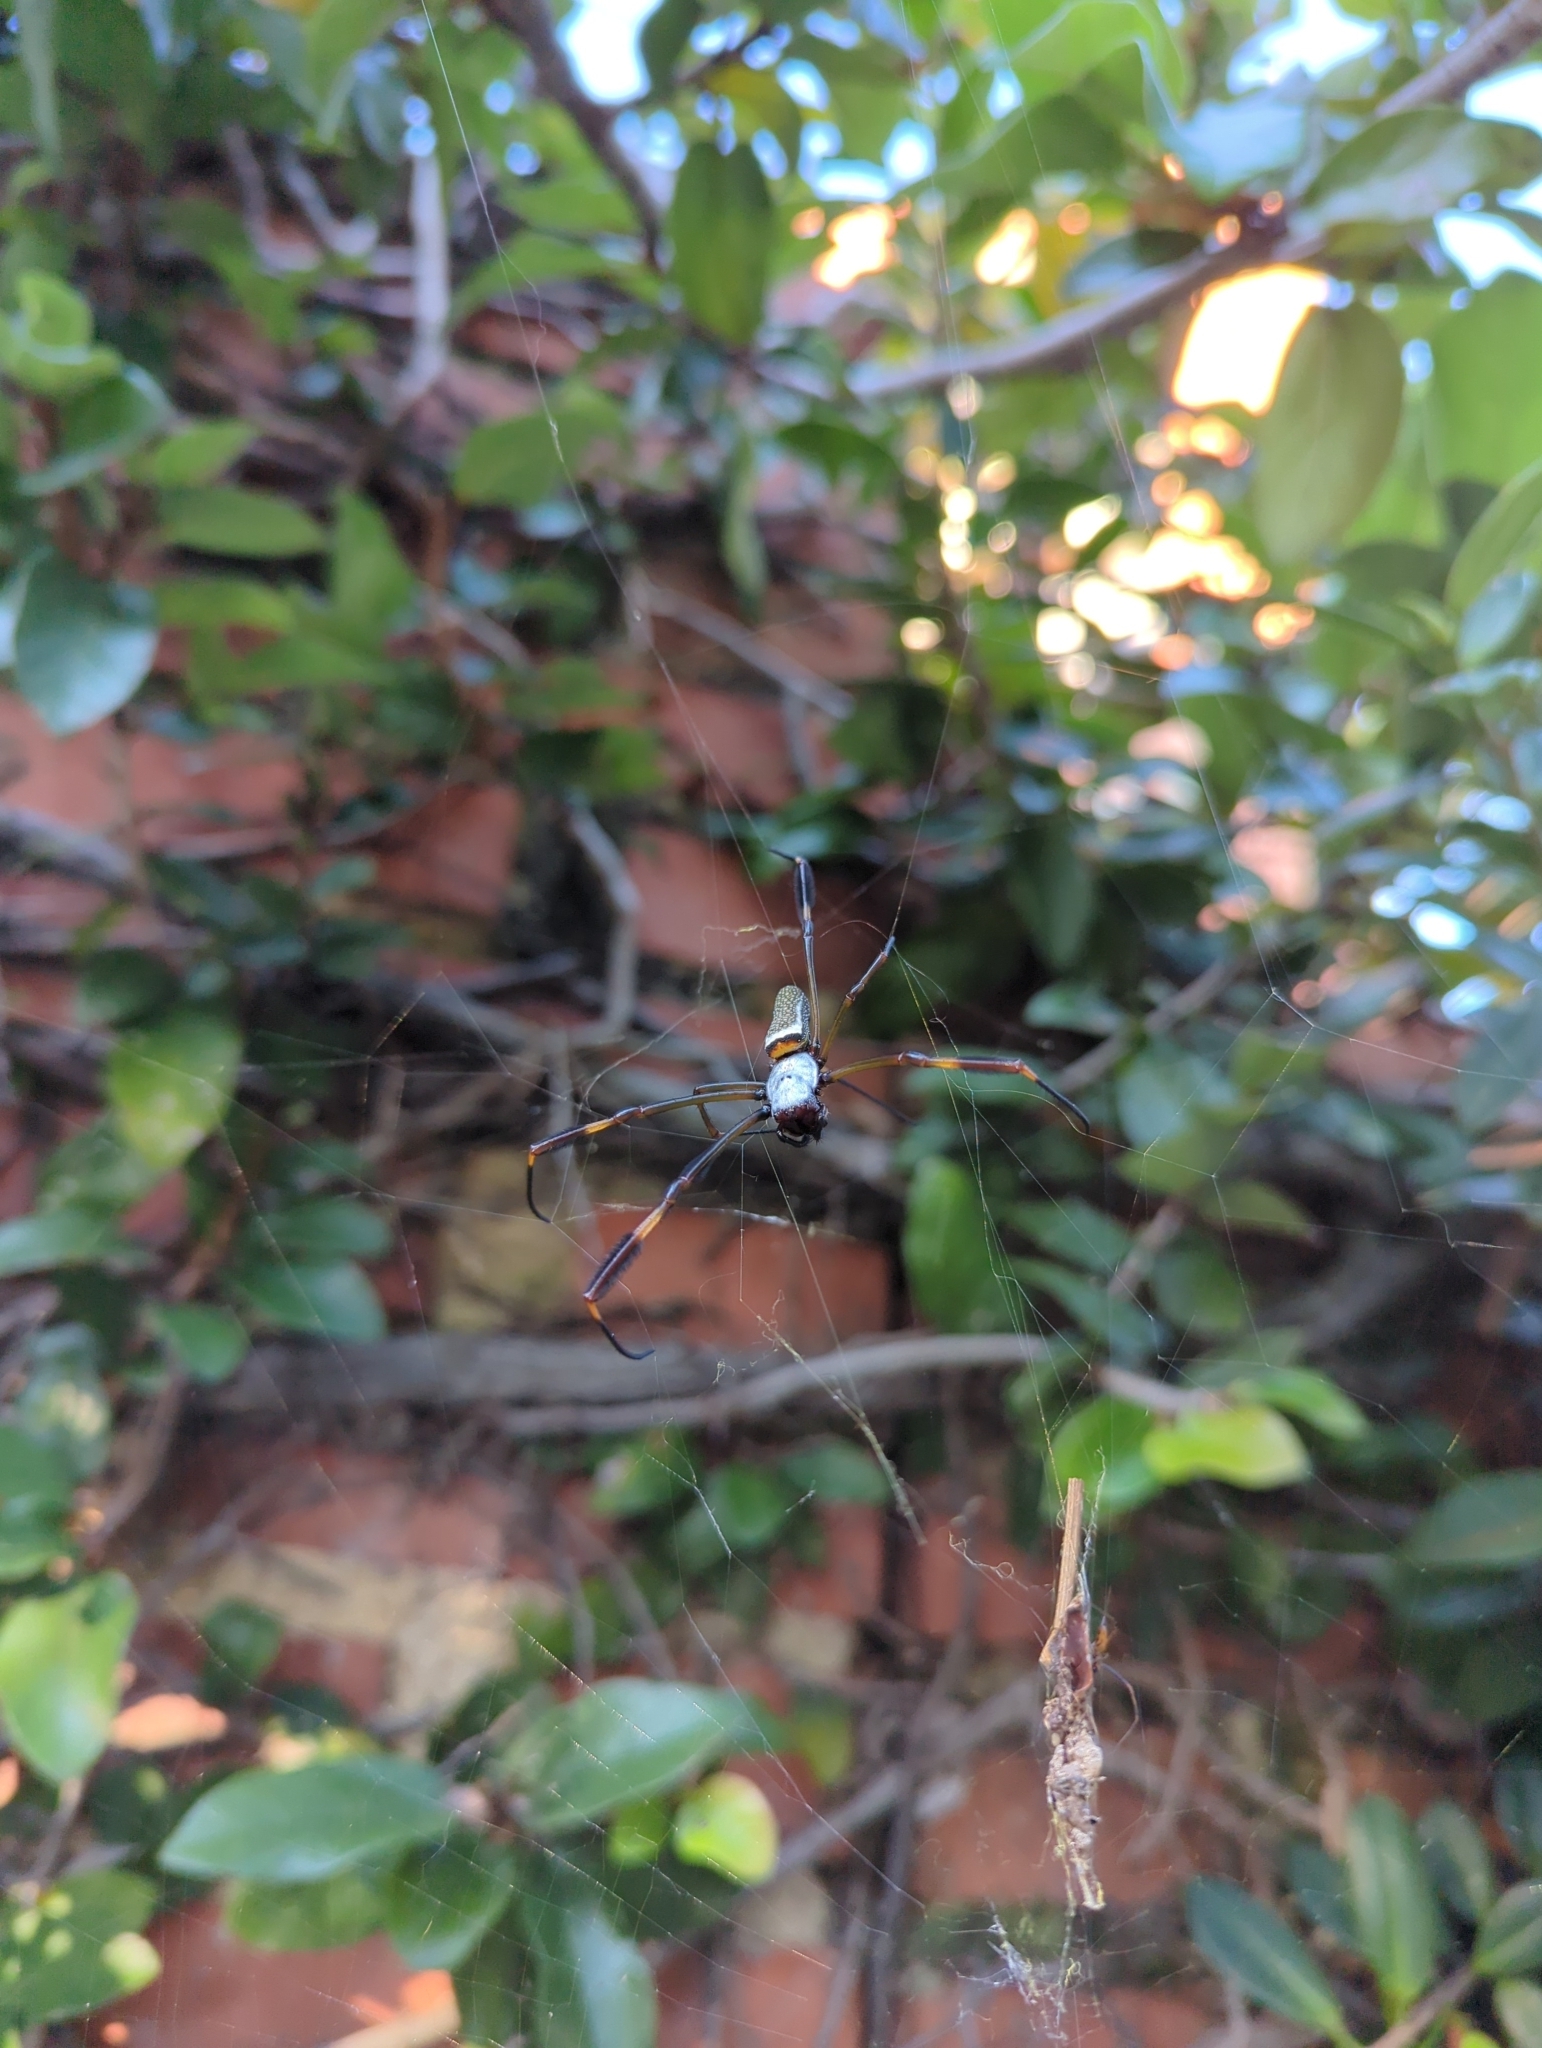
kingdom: Animalia
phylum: Arthropoda
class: Arachnida
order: Araneae
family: Araneidae
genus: Trichonephila
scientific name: Trichonephila clavipes
